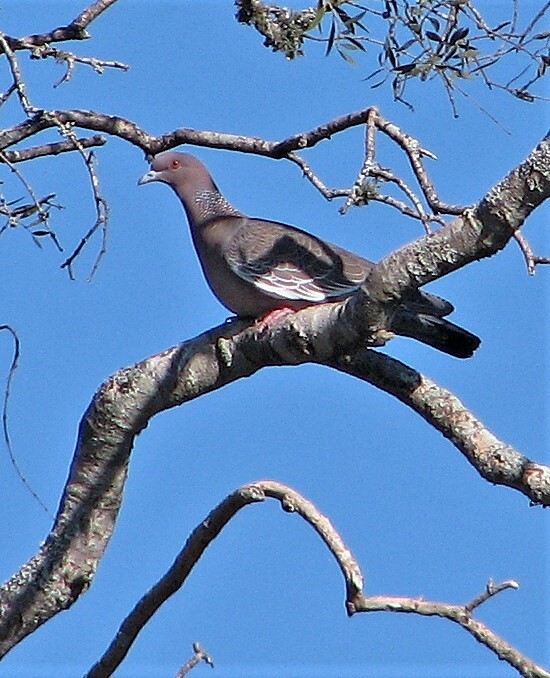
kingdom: Animalia
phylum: Chordata
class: Aves
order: Columbiformes
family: Columbidae
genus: Patagioenas
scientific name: Patagioenas picazuro
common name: Picazuro pigeon
